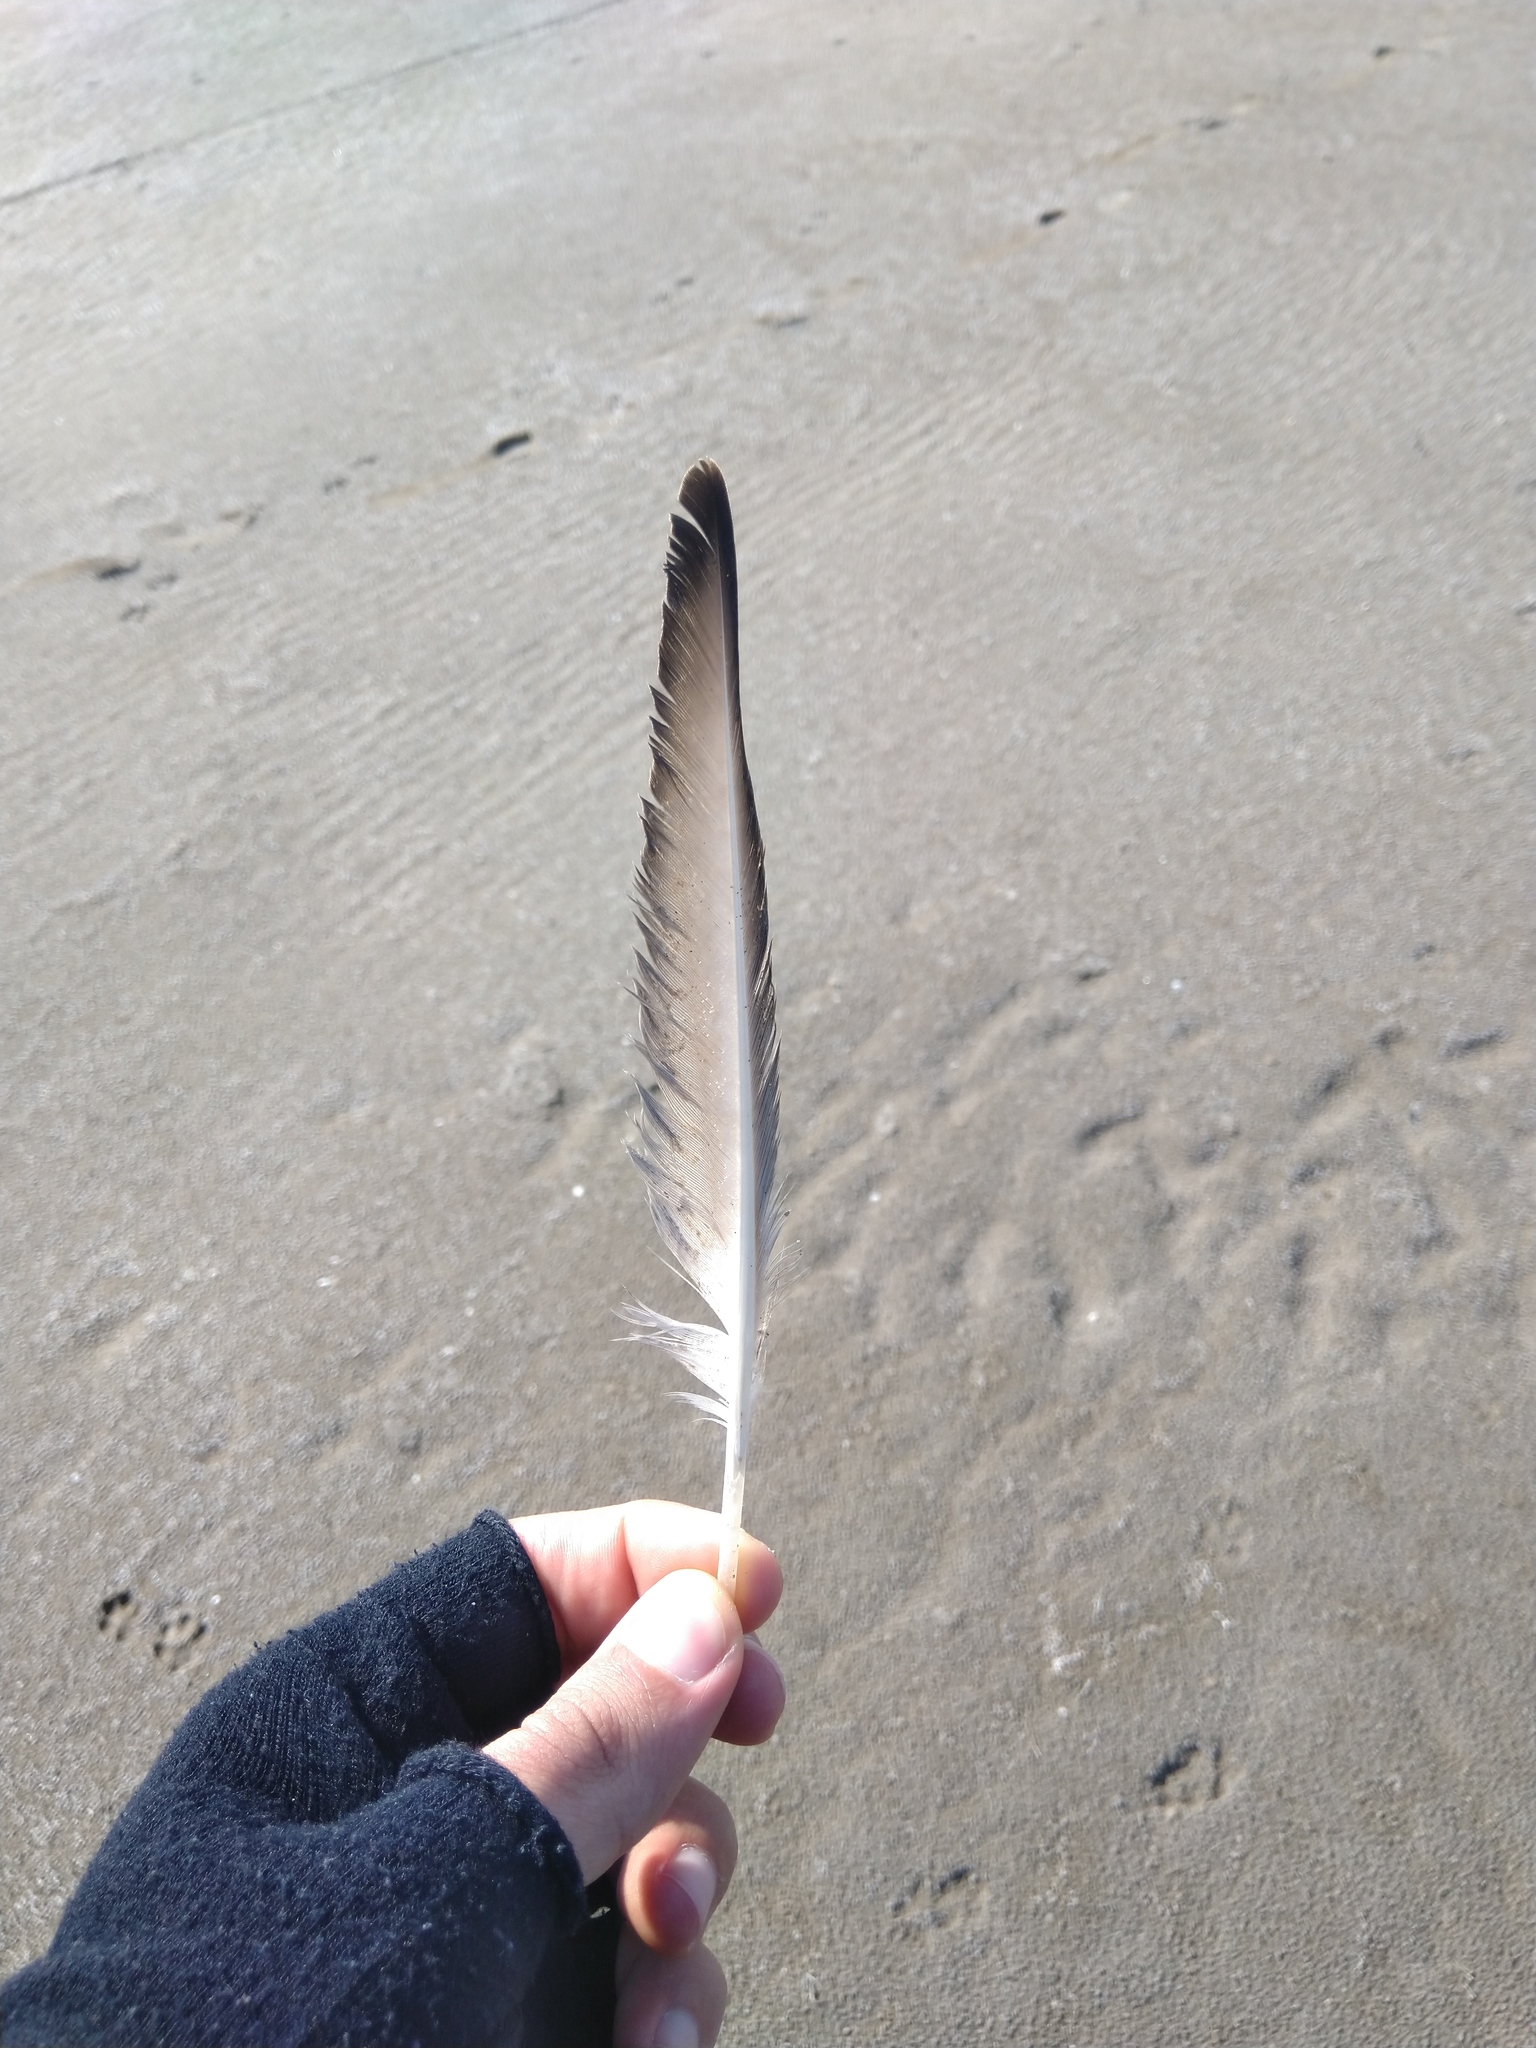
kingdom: Animalia
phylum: Chordata
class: Aves
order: Anseriformes
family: Anatidae
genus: Spatula
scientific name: Spatula clypeata
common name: Northern shoveler
